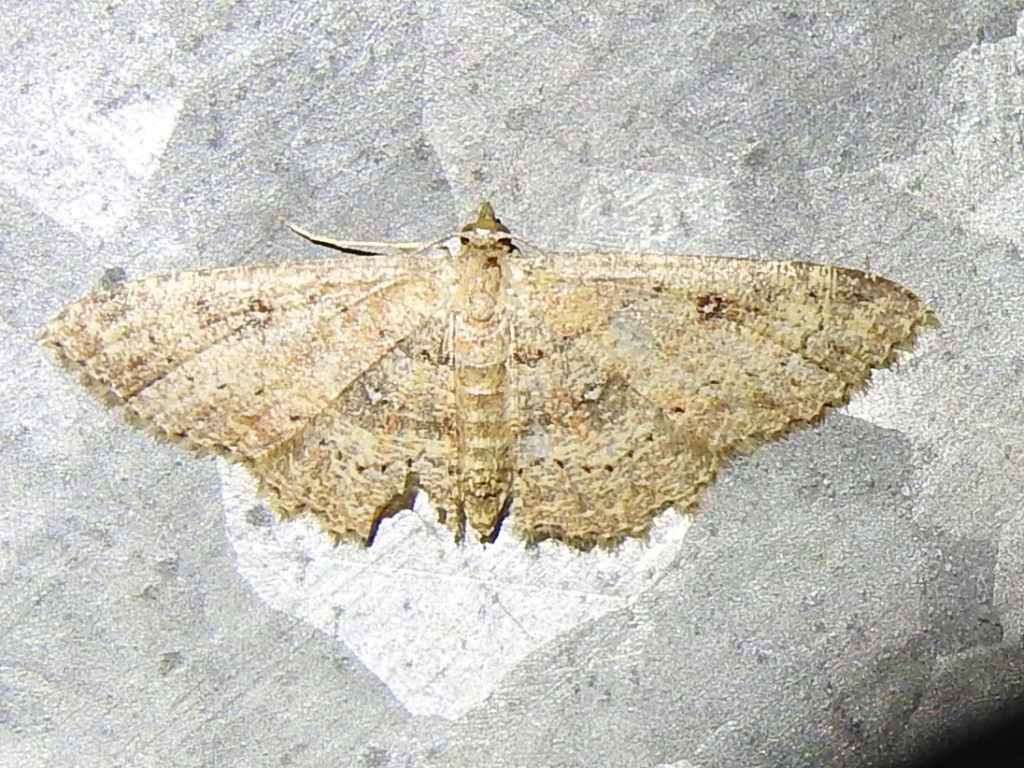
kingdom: Animalia
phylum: Arthropoda
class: Insecta
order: Lepidoptera
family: Geometridae
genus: Cyclophora
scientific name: Cyclophora nanaria
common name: Cankerworm
